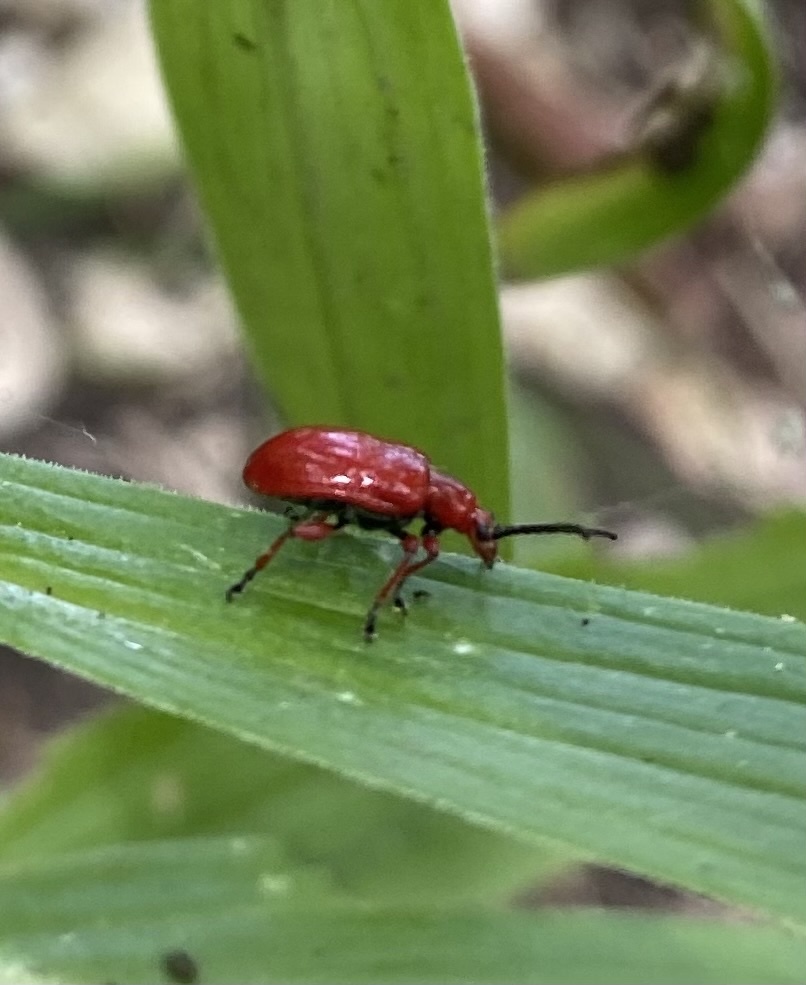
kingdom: Animalia
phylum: Arthropoda
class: Insecta
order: Coleoptera
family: Chrysomelidae
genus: Lilioceris
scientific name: Lilioceris merdigera
